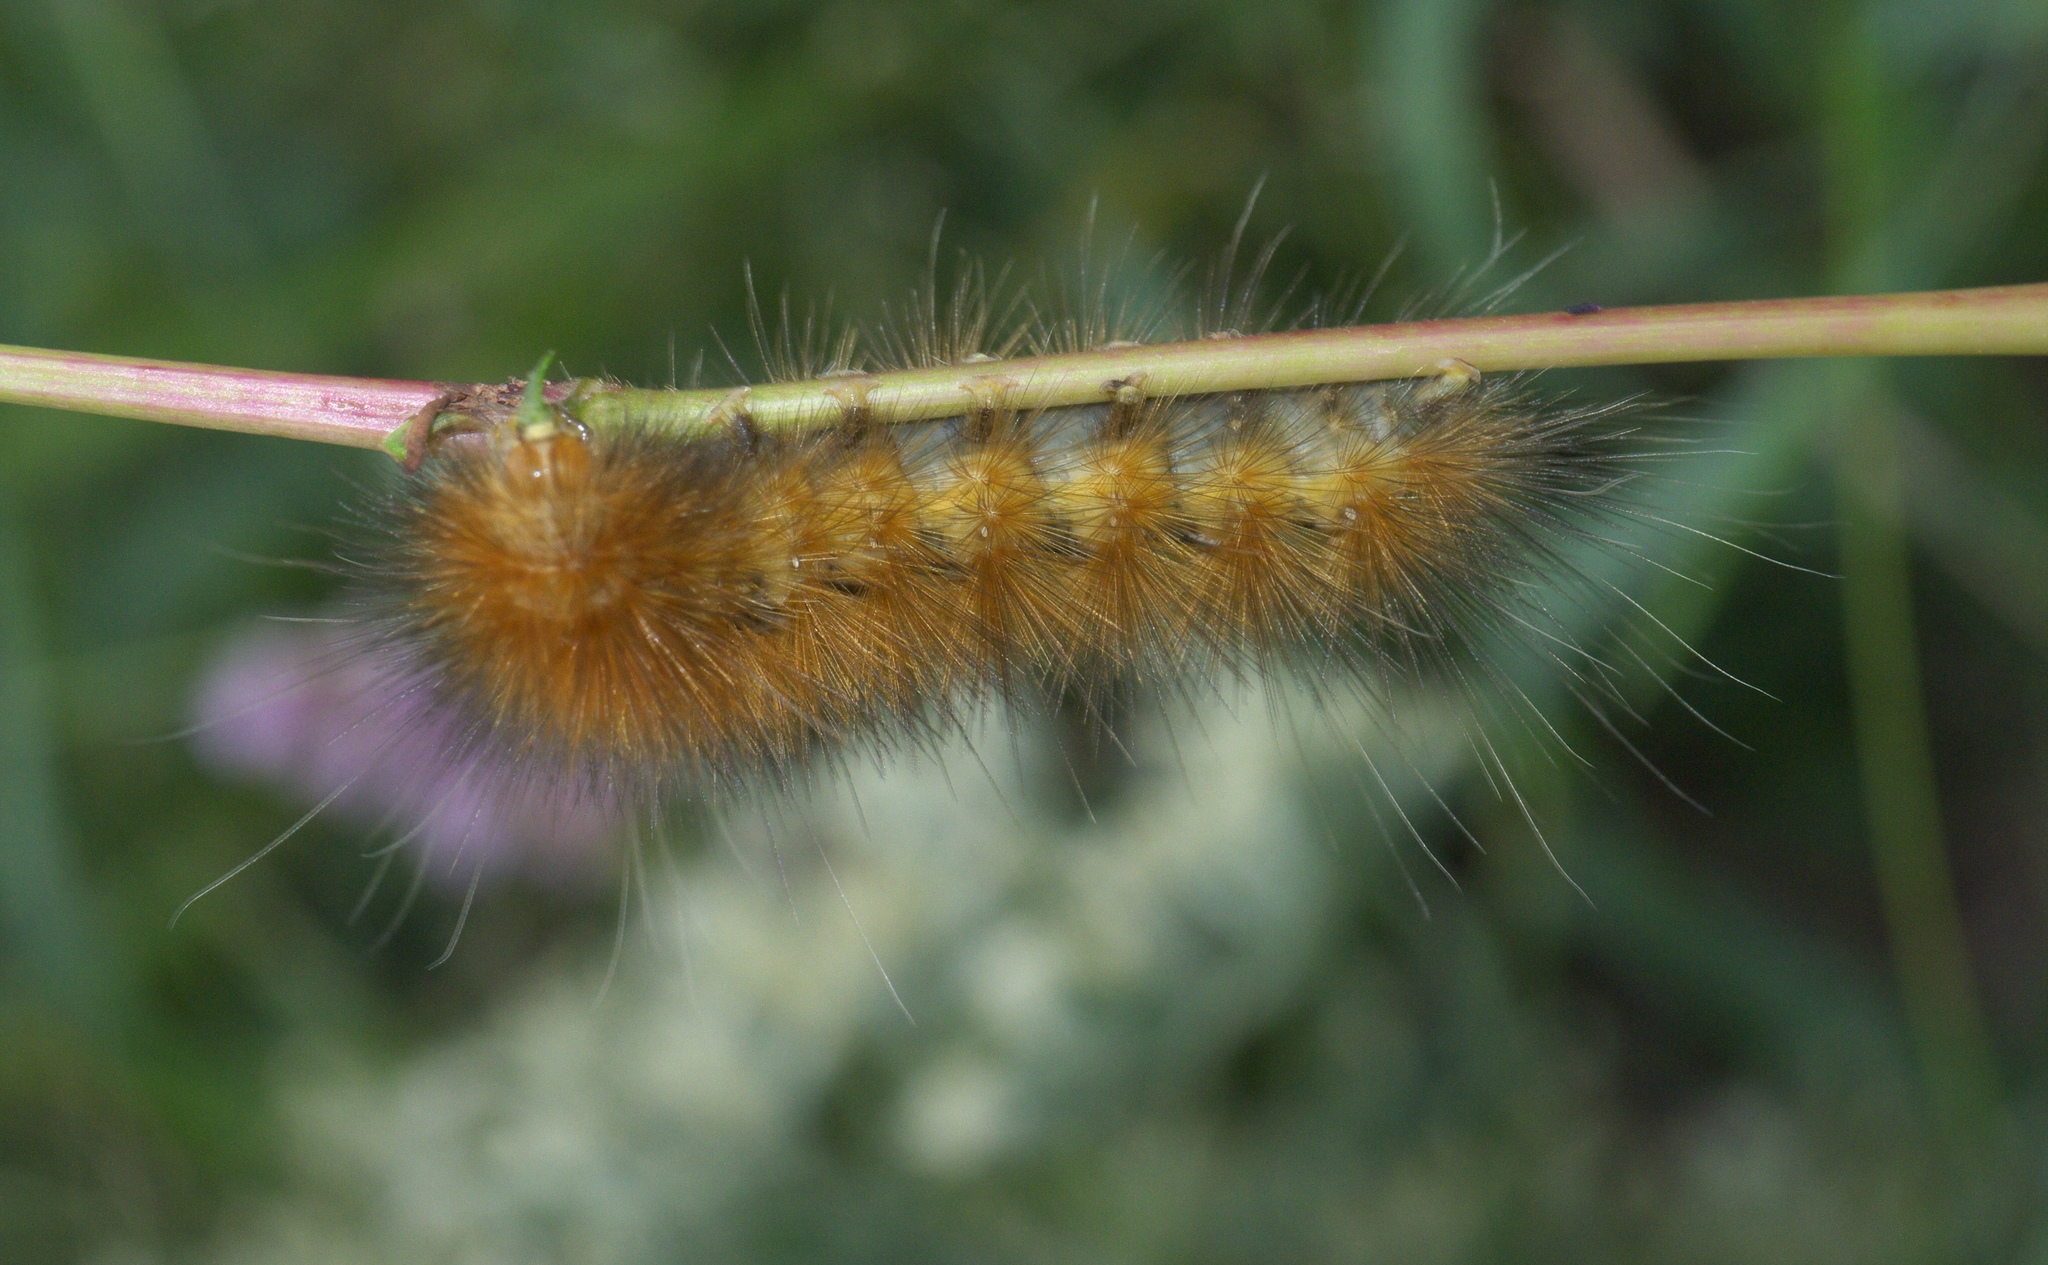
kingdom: Animalia
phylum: Arthropoda
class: Insecta
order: Lepidoptera
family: Erebidae
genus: Spilosoma
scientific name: Spilosoma virginica
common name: Virginia tiger moth
